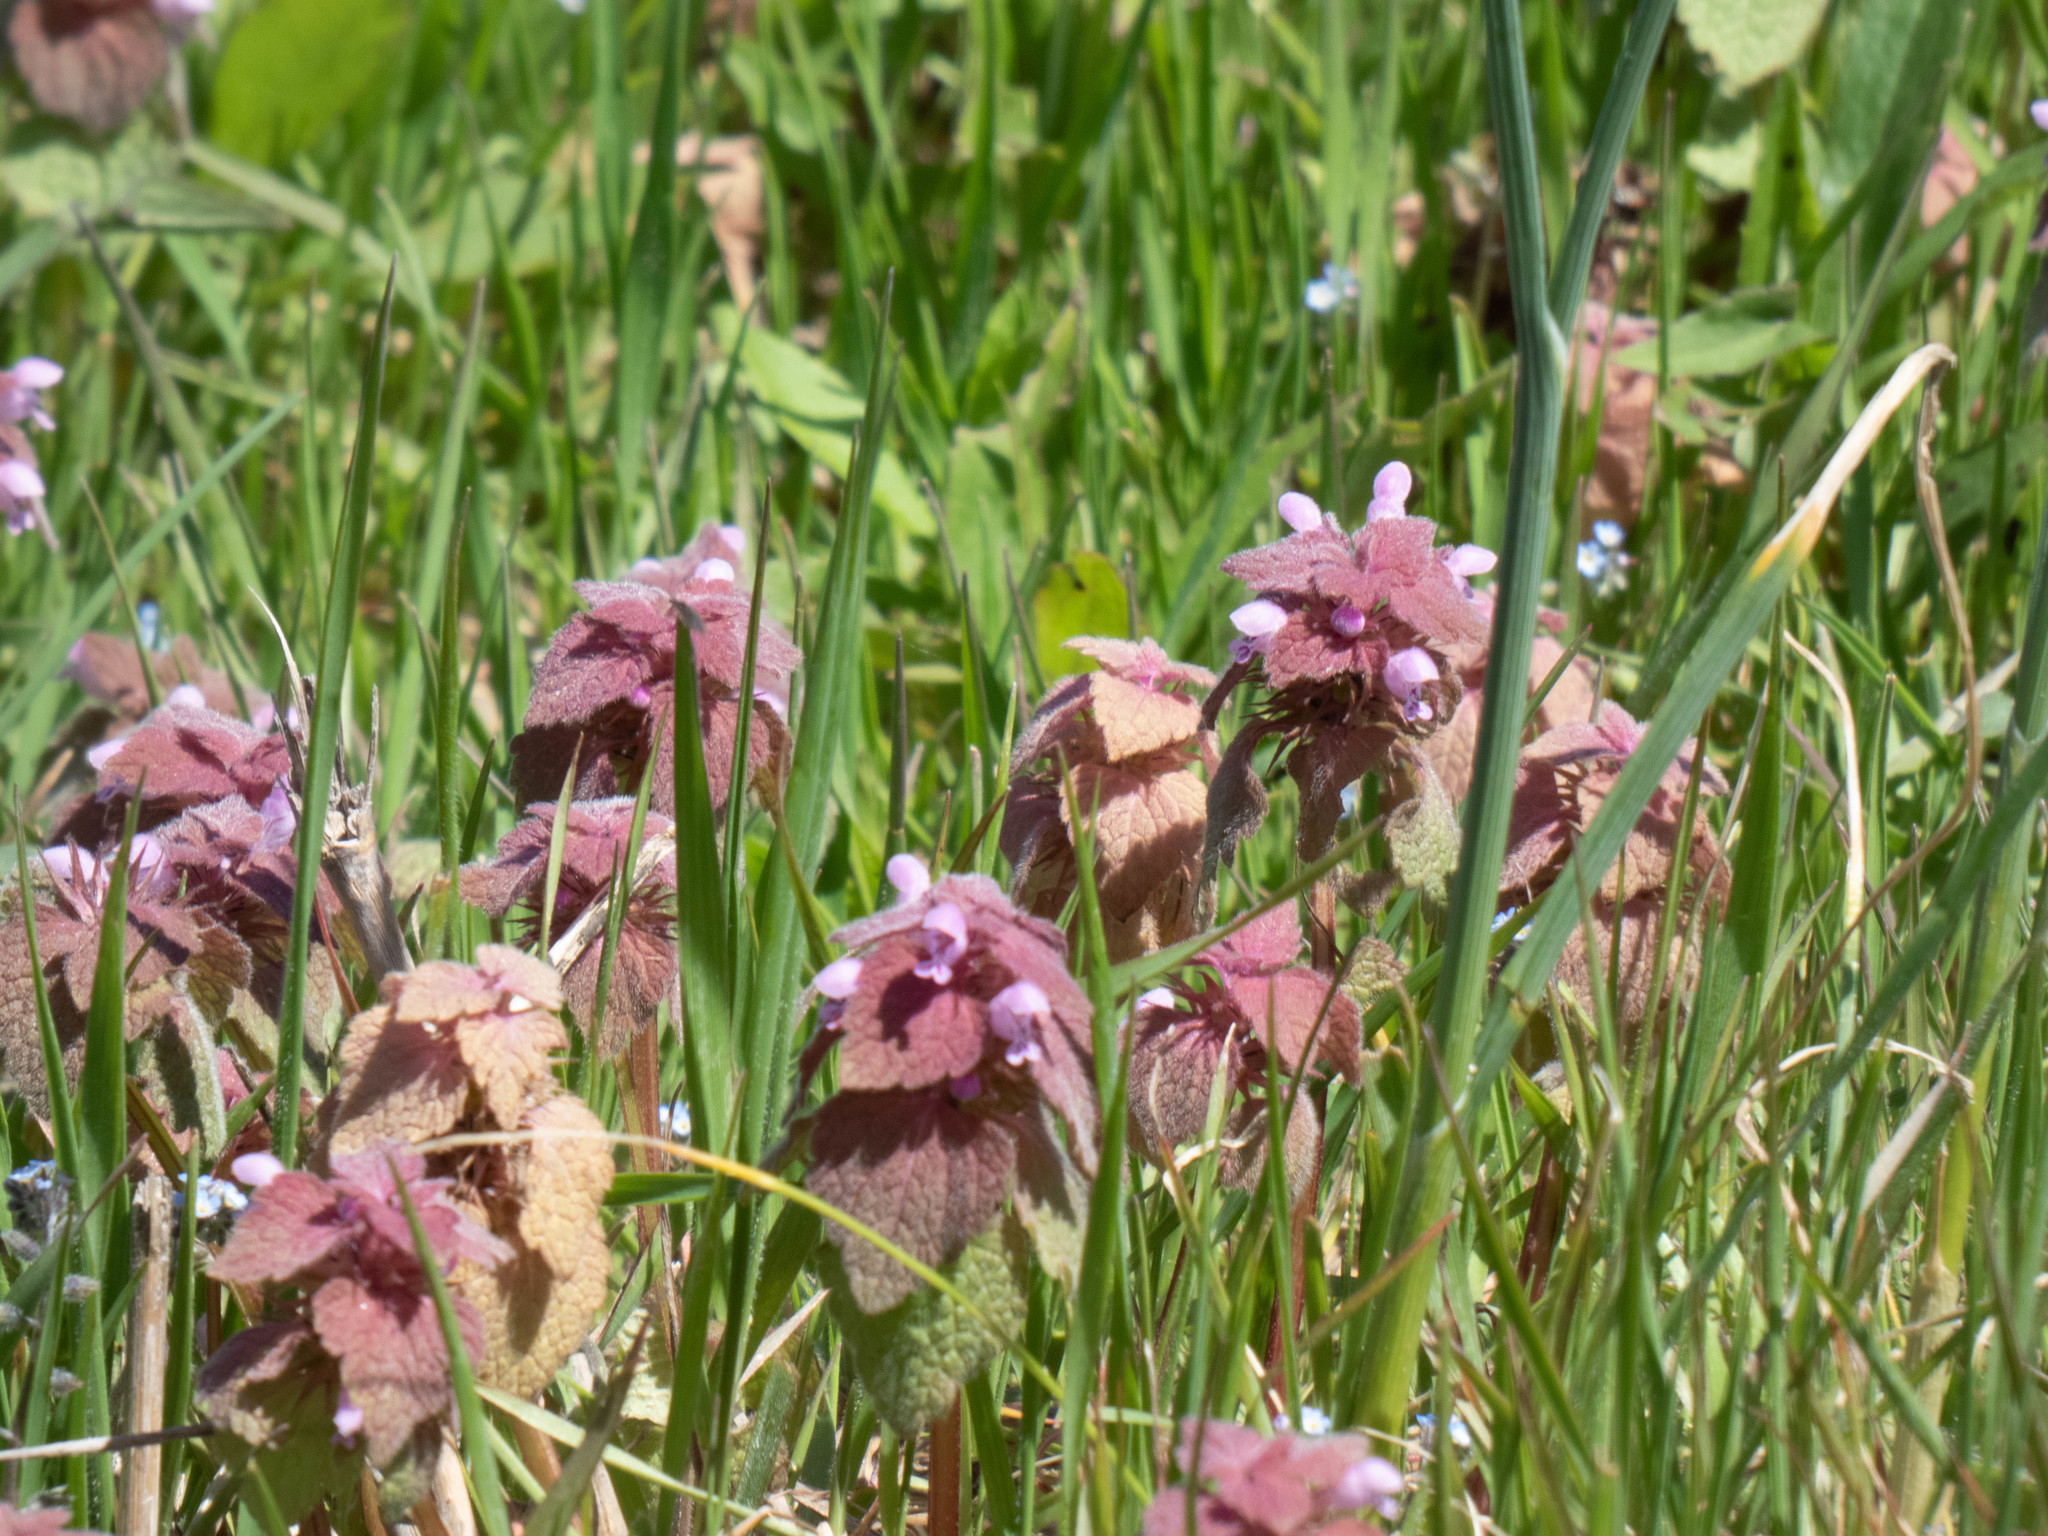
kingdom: Plantae
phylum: Tracheophyta
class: Magnoliopsida
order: Lamiales
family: Lamiaceae
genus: Lamium
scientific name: Lamium purpureum
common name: Red dead-nettle
